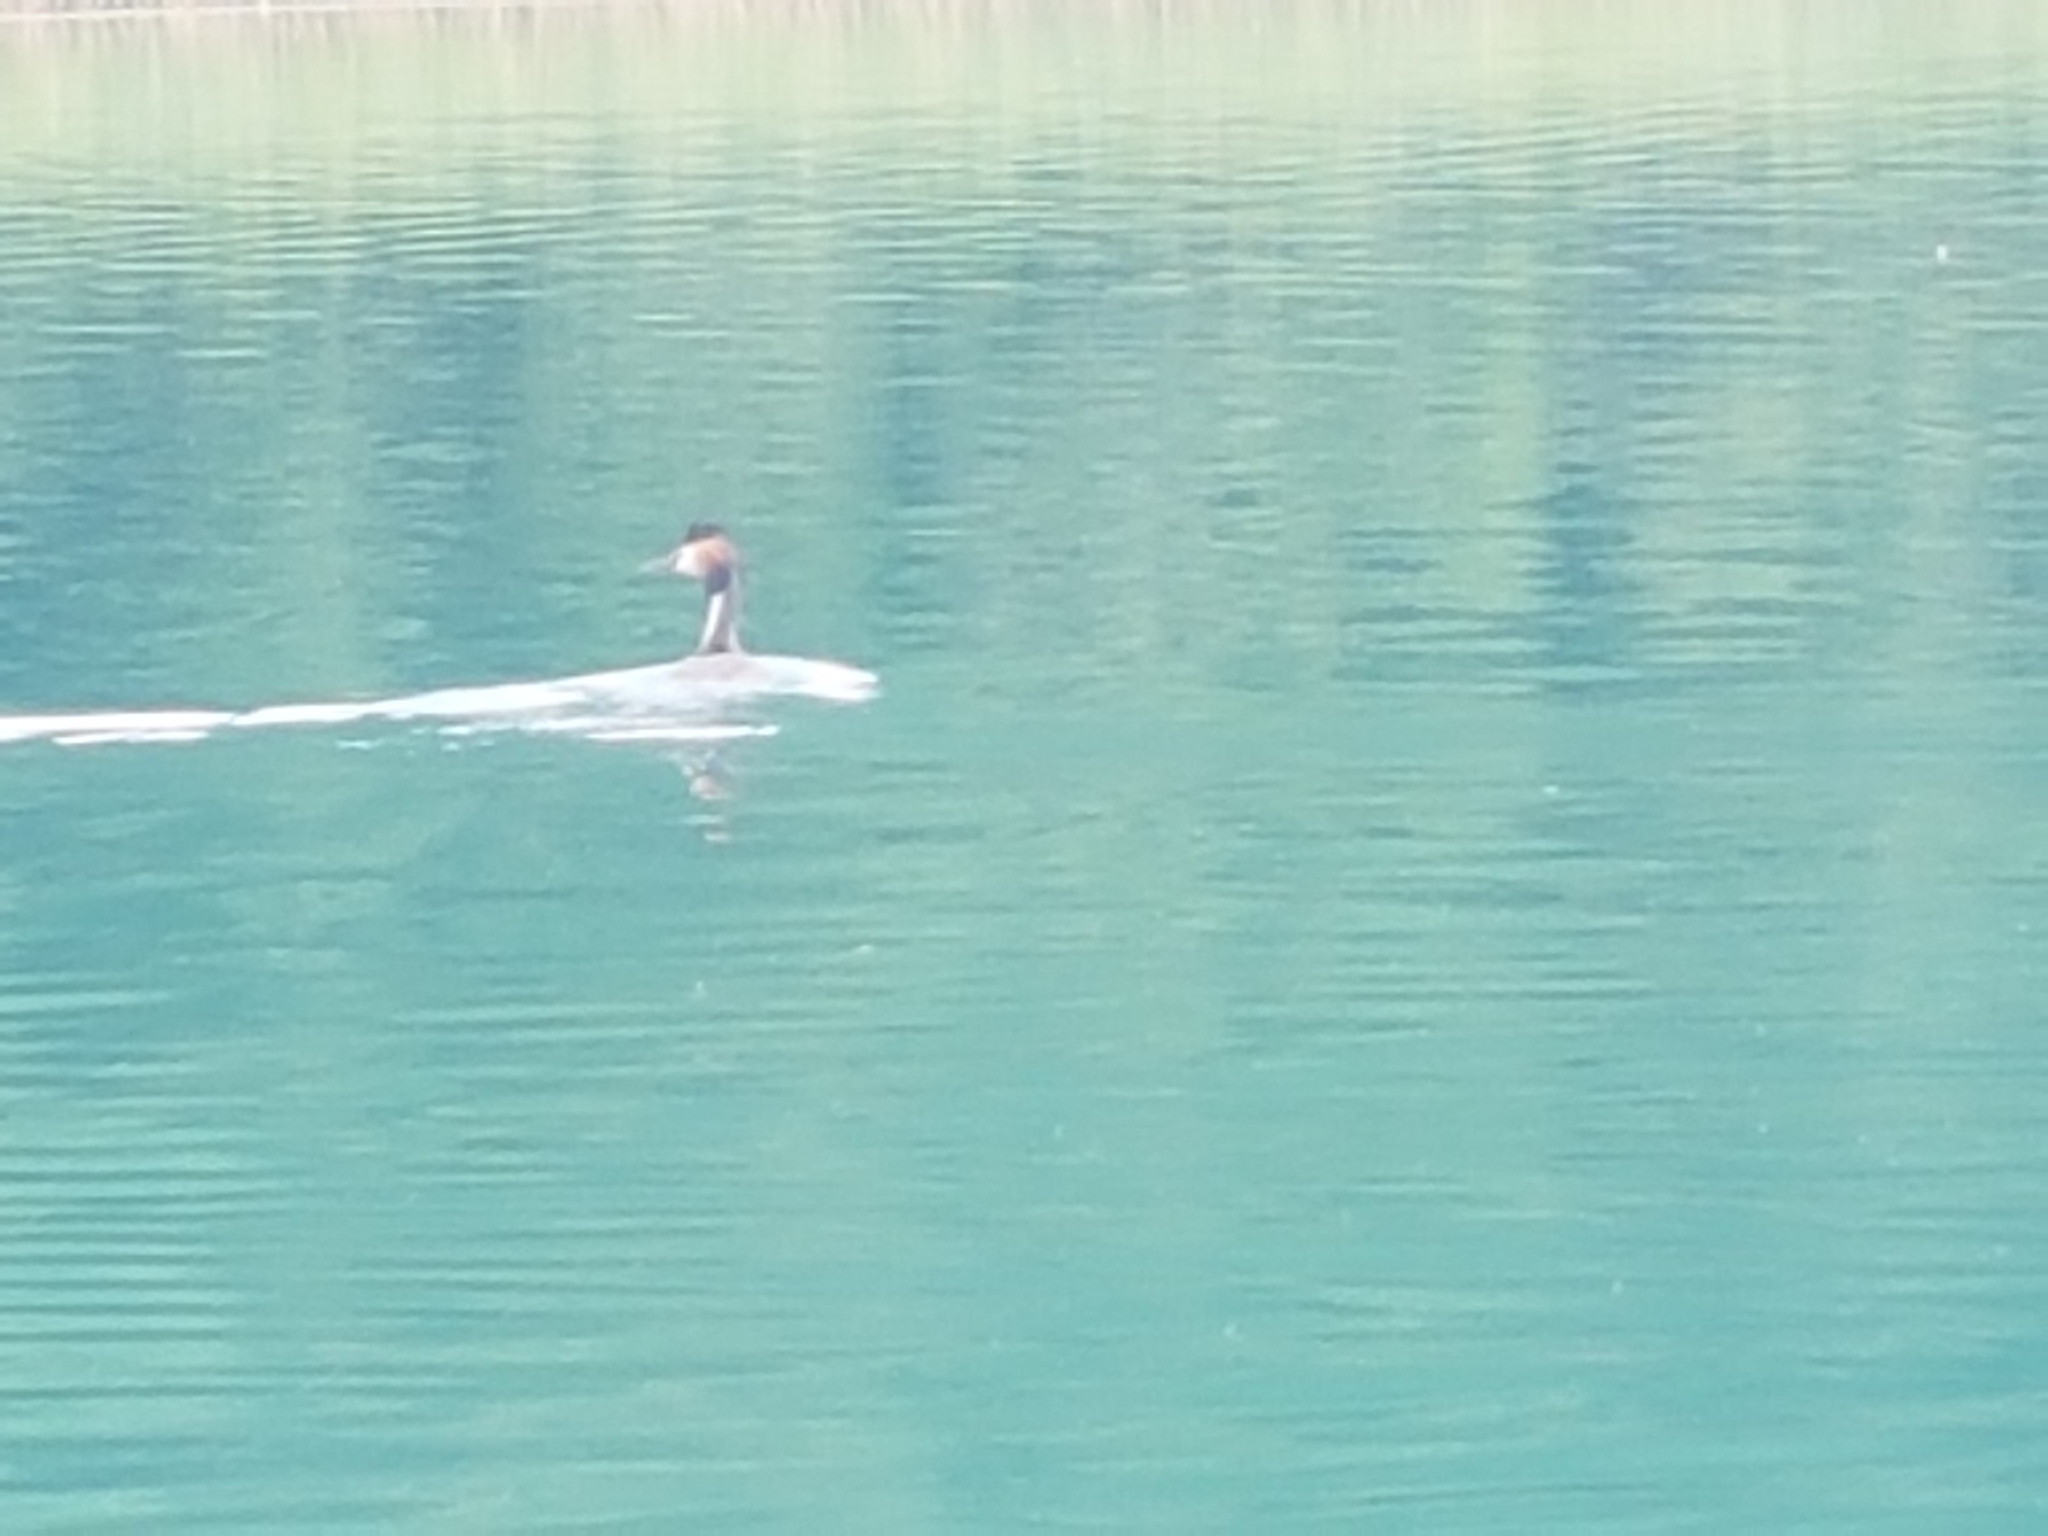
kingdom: Animalia
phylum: Chordata
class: Aves
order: Podicipediformes
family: Podicipedidae
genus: Podiceps
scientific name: Podiceps cristatus
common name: Great crested grebe
